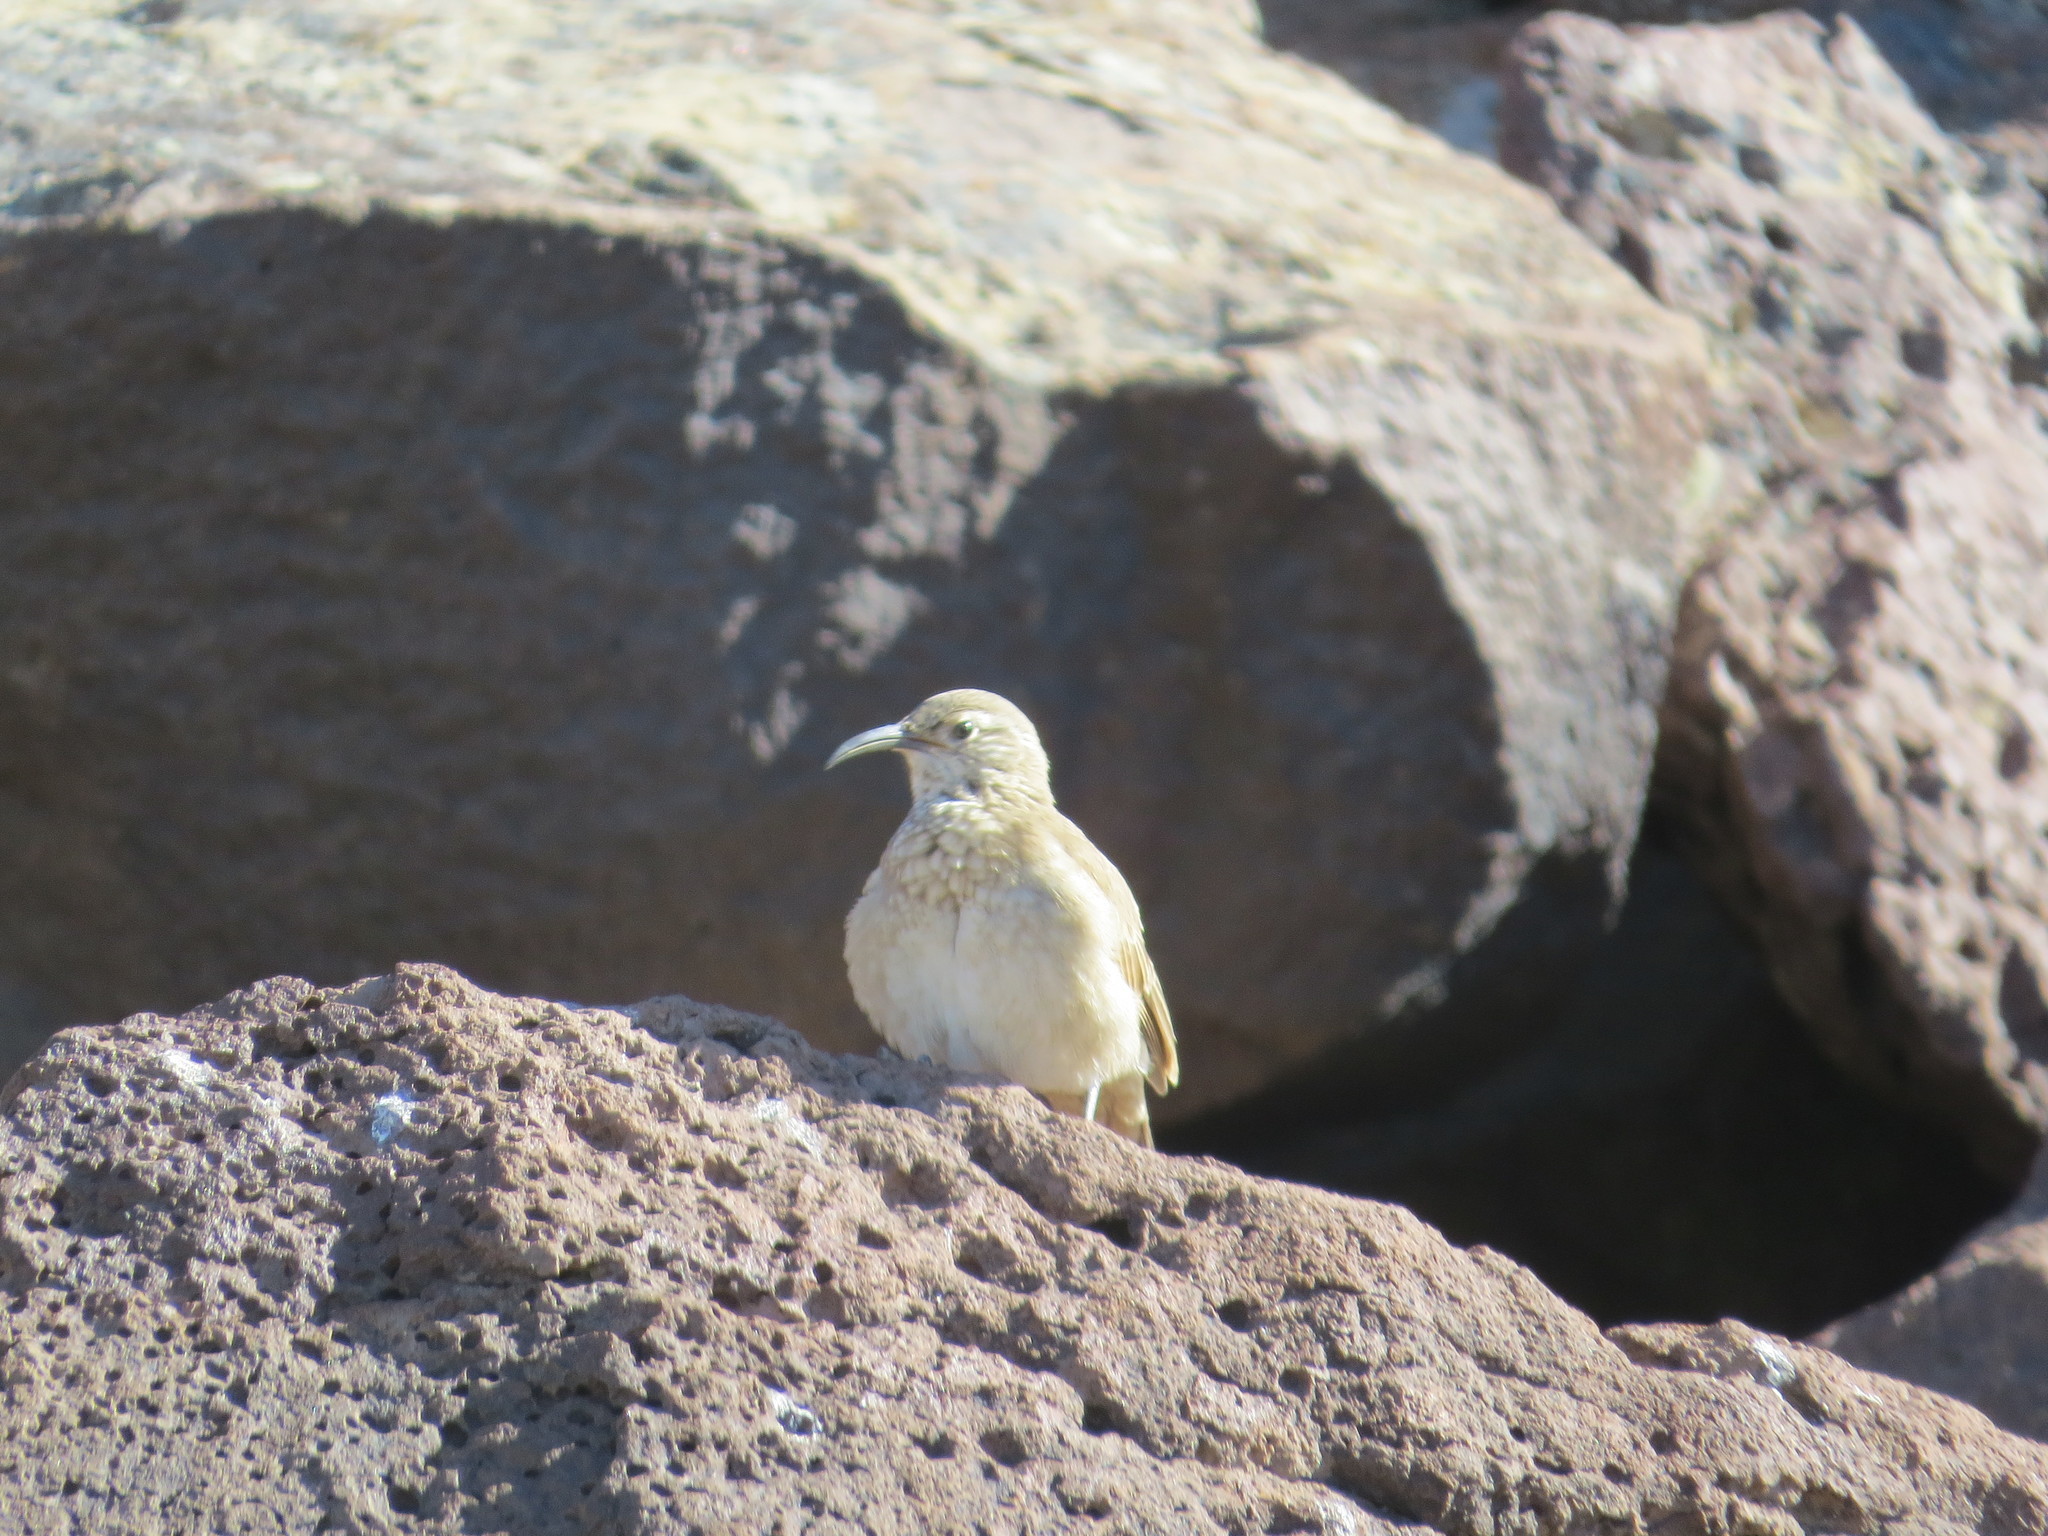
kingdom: Animalia
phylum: Chordata
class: Aves
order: Passeriformes
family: Furnariidae
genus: Upucerthia
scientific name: Upucerthia dumetaria
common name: Scale-throated earthcreeper
